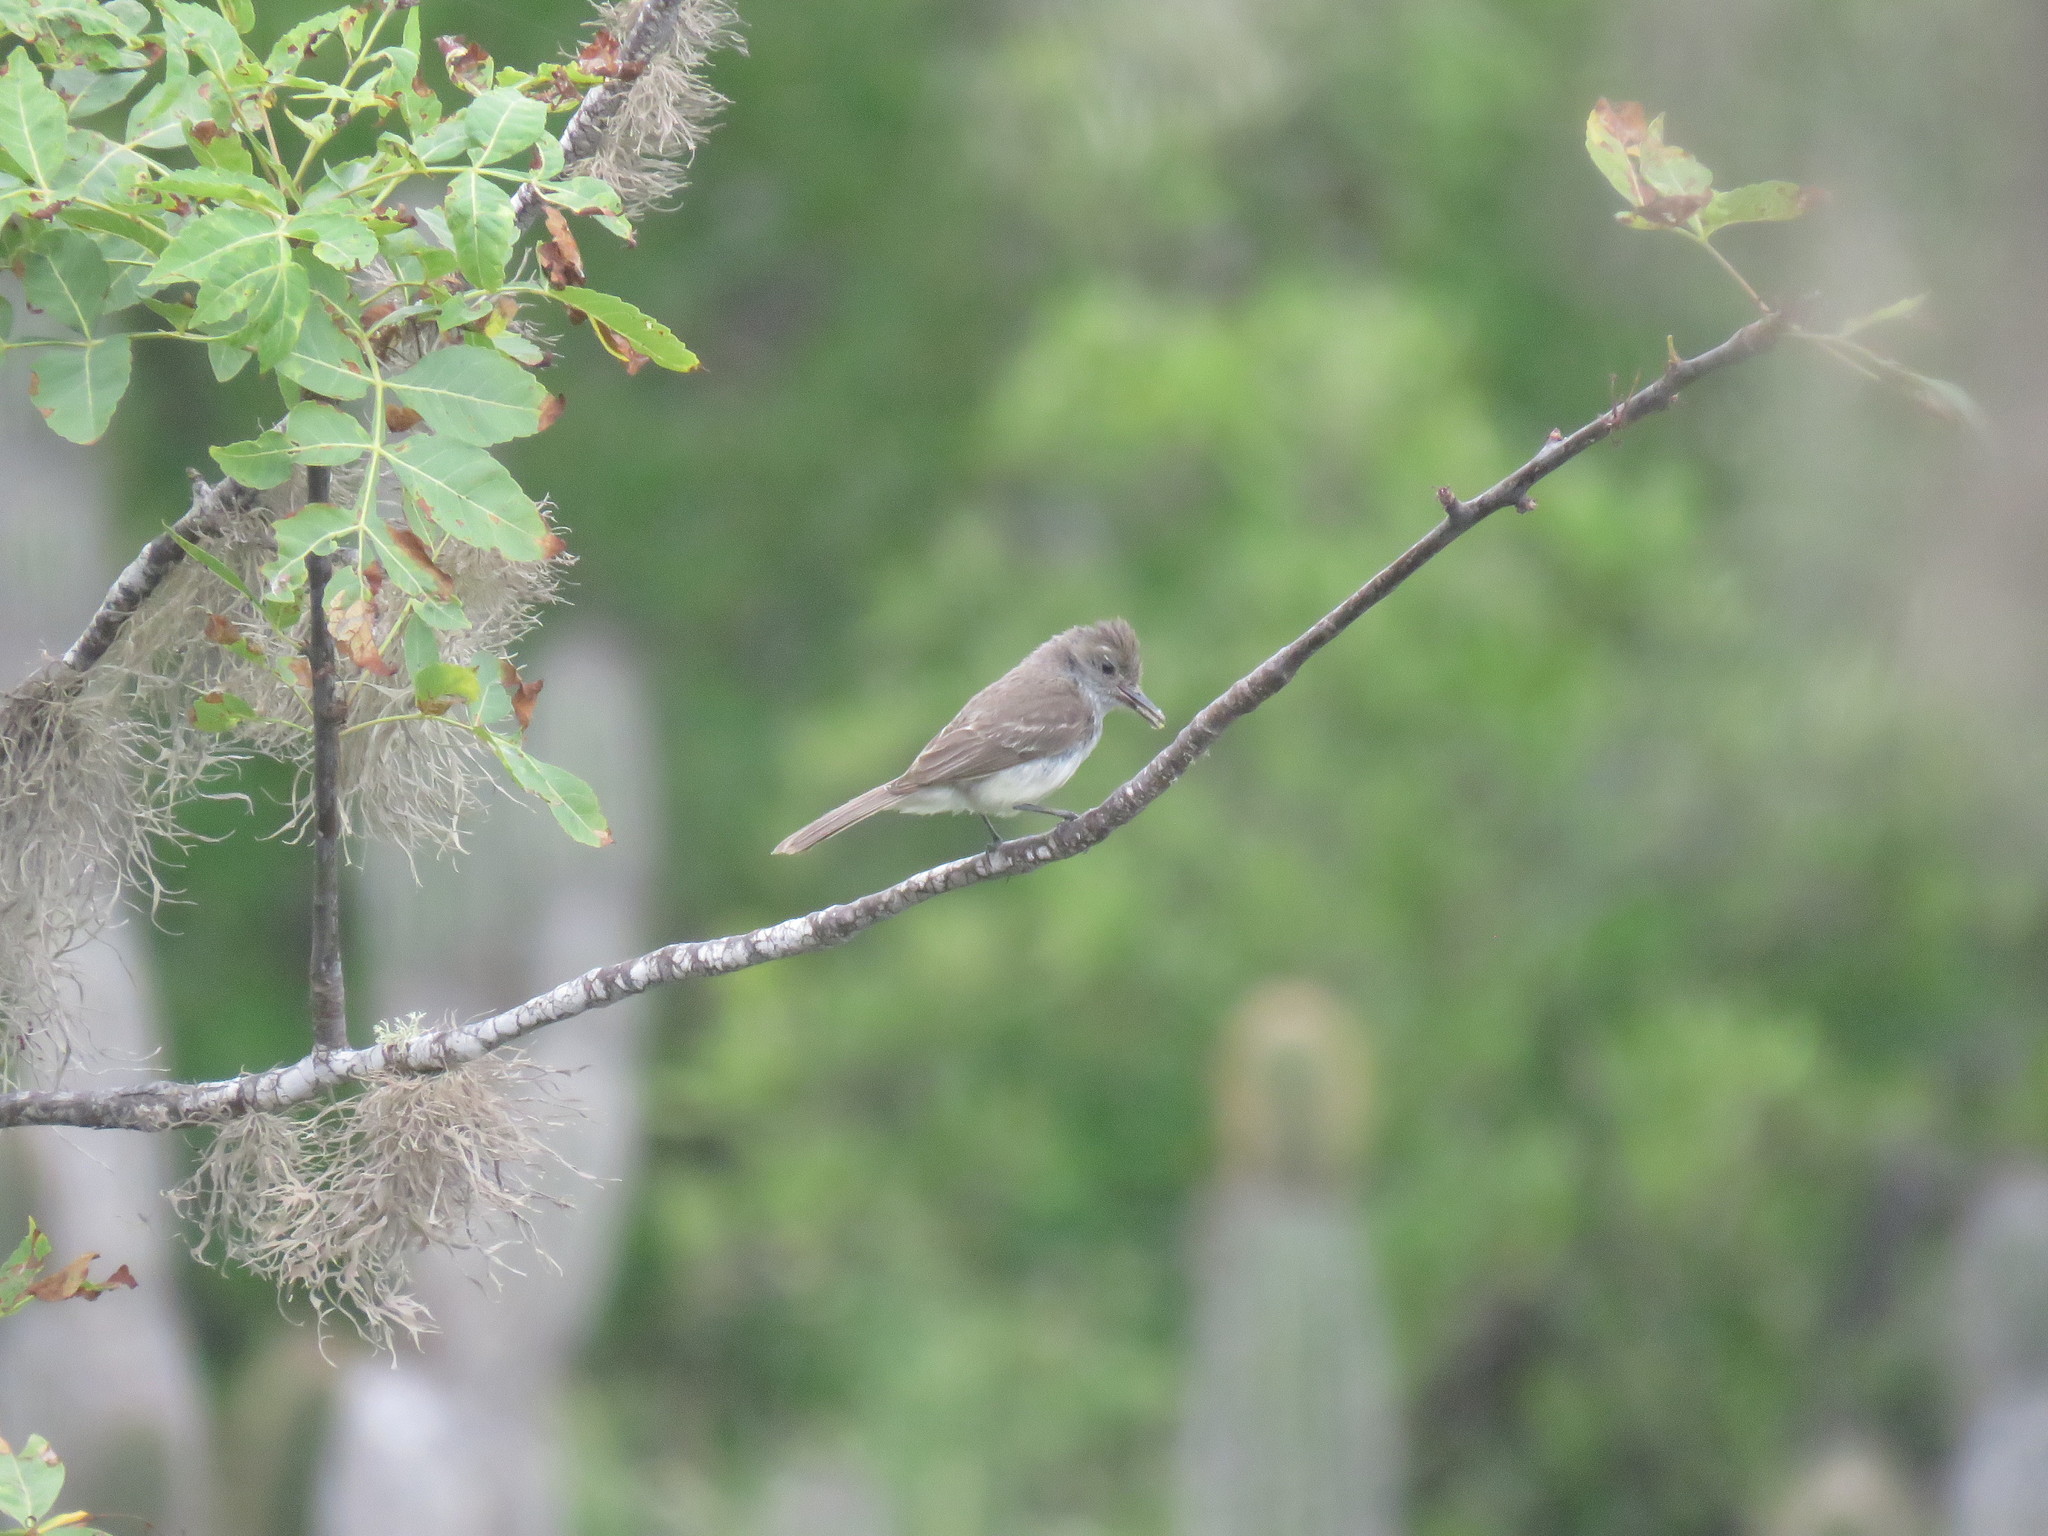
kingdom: Animalia
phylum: Chordata
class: Aves
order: Passeriformes
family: Tyrannidae
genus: Myiarchus
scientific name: Myiarchus magnirostris
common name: Galapagos flycatcher
